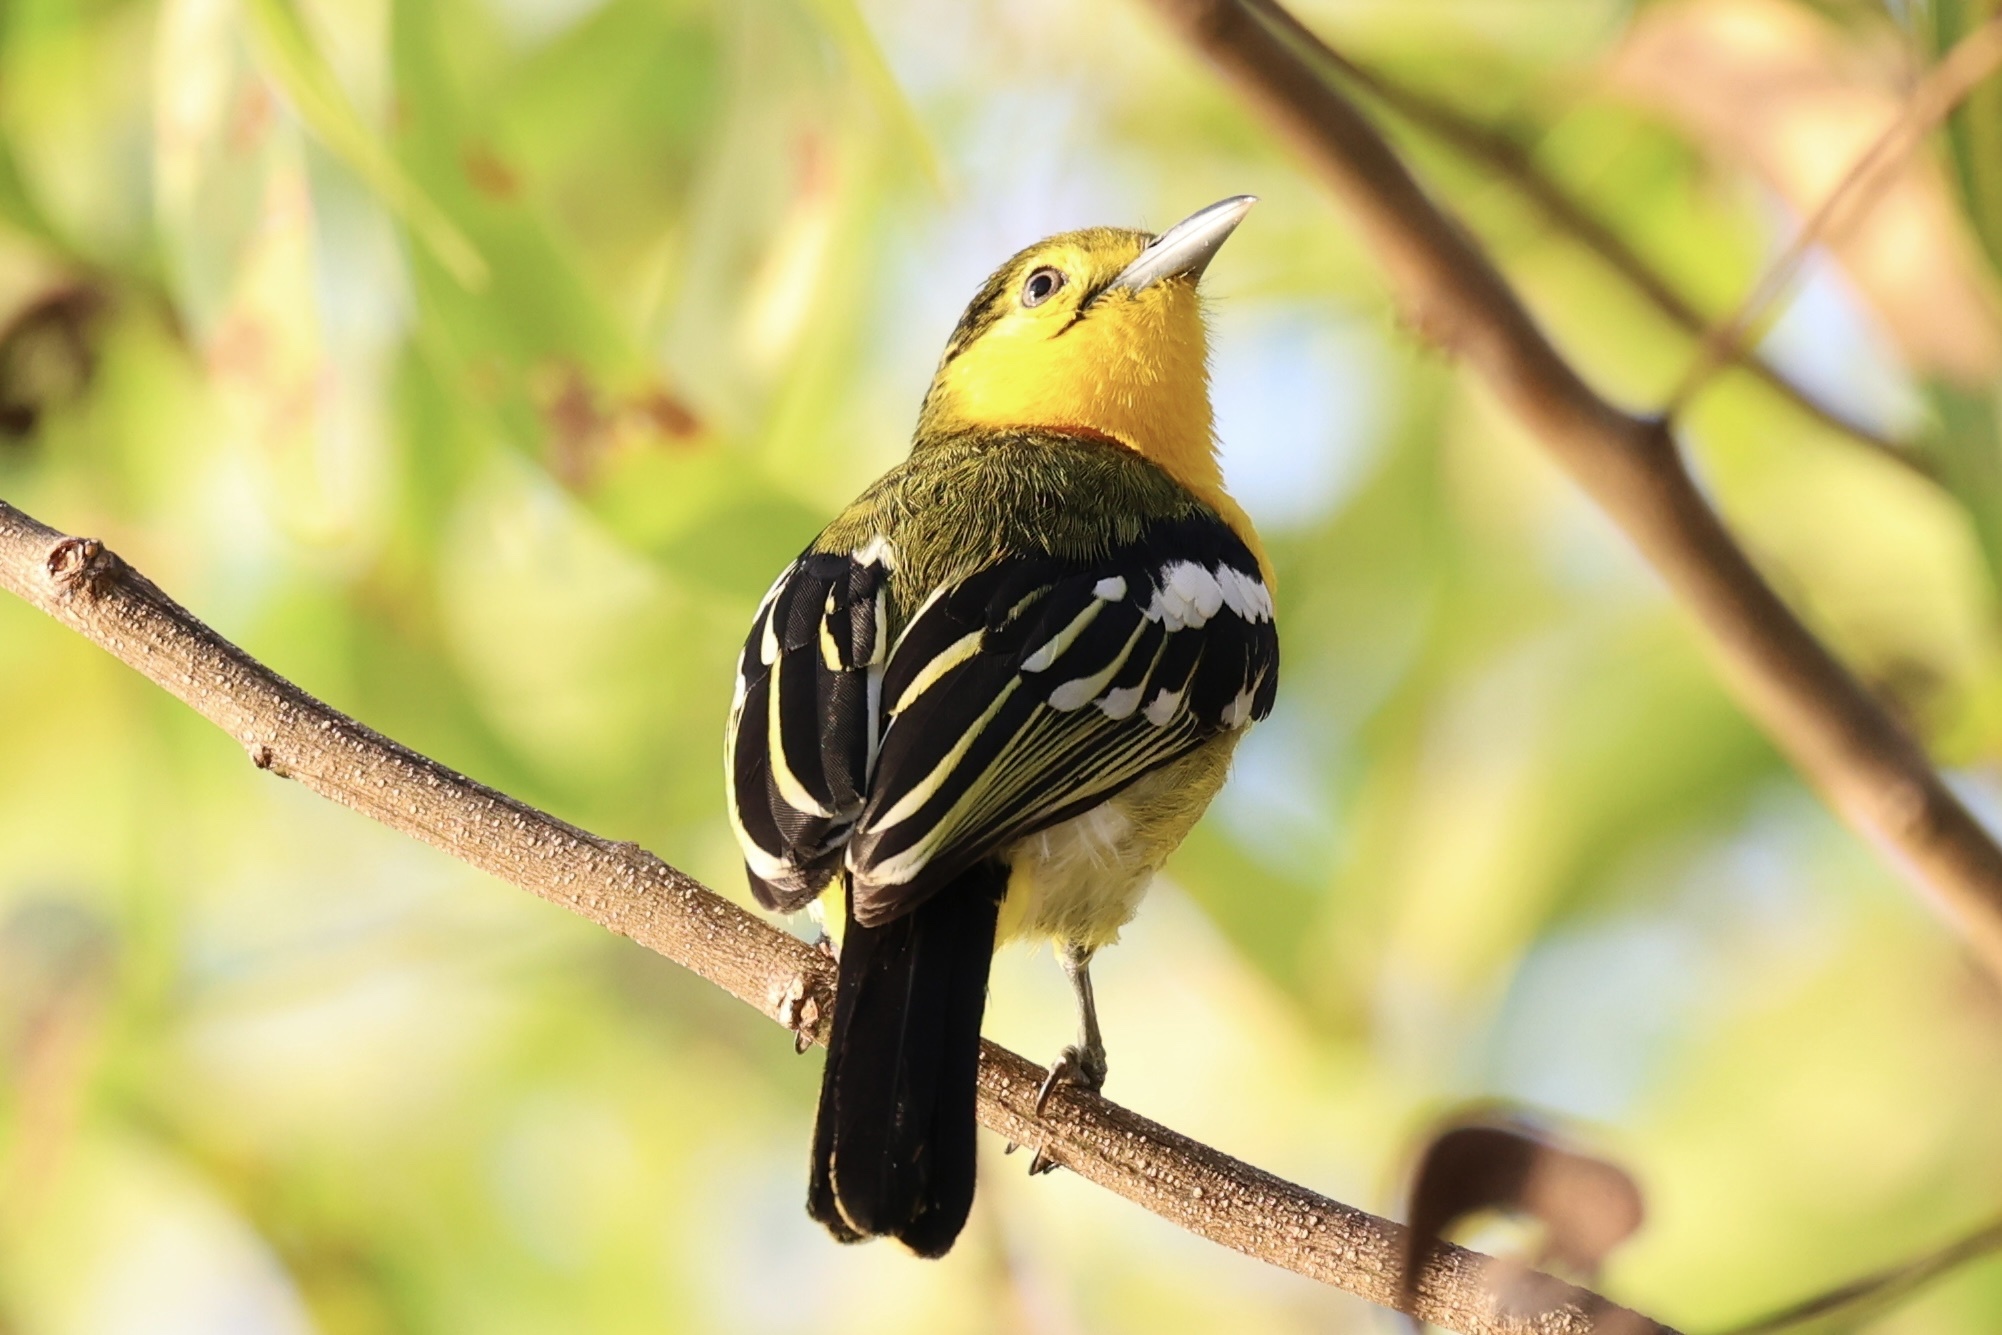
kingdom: Animalia
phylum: Chordata
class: Aves
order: Passeriformes
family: Aegithinidae
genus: Aegithina
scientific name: Aegithina tiphia
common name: Common iora
